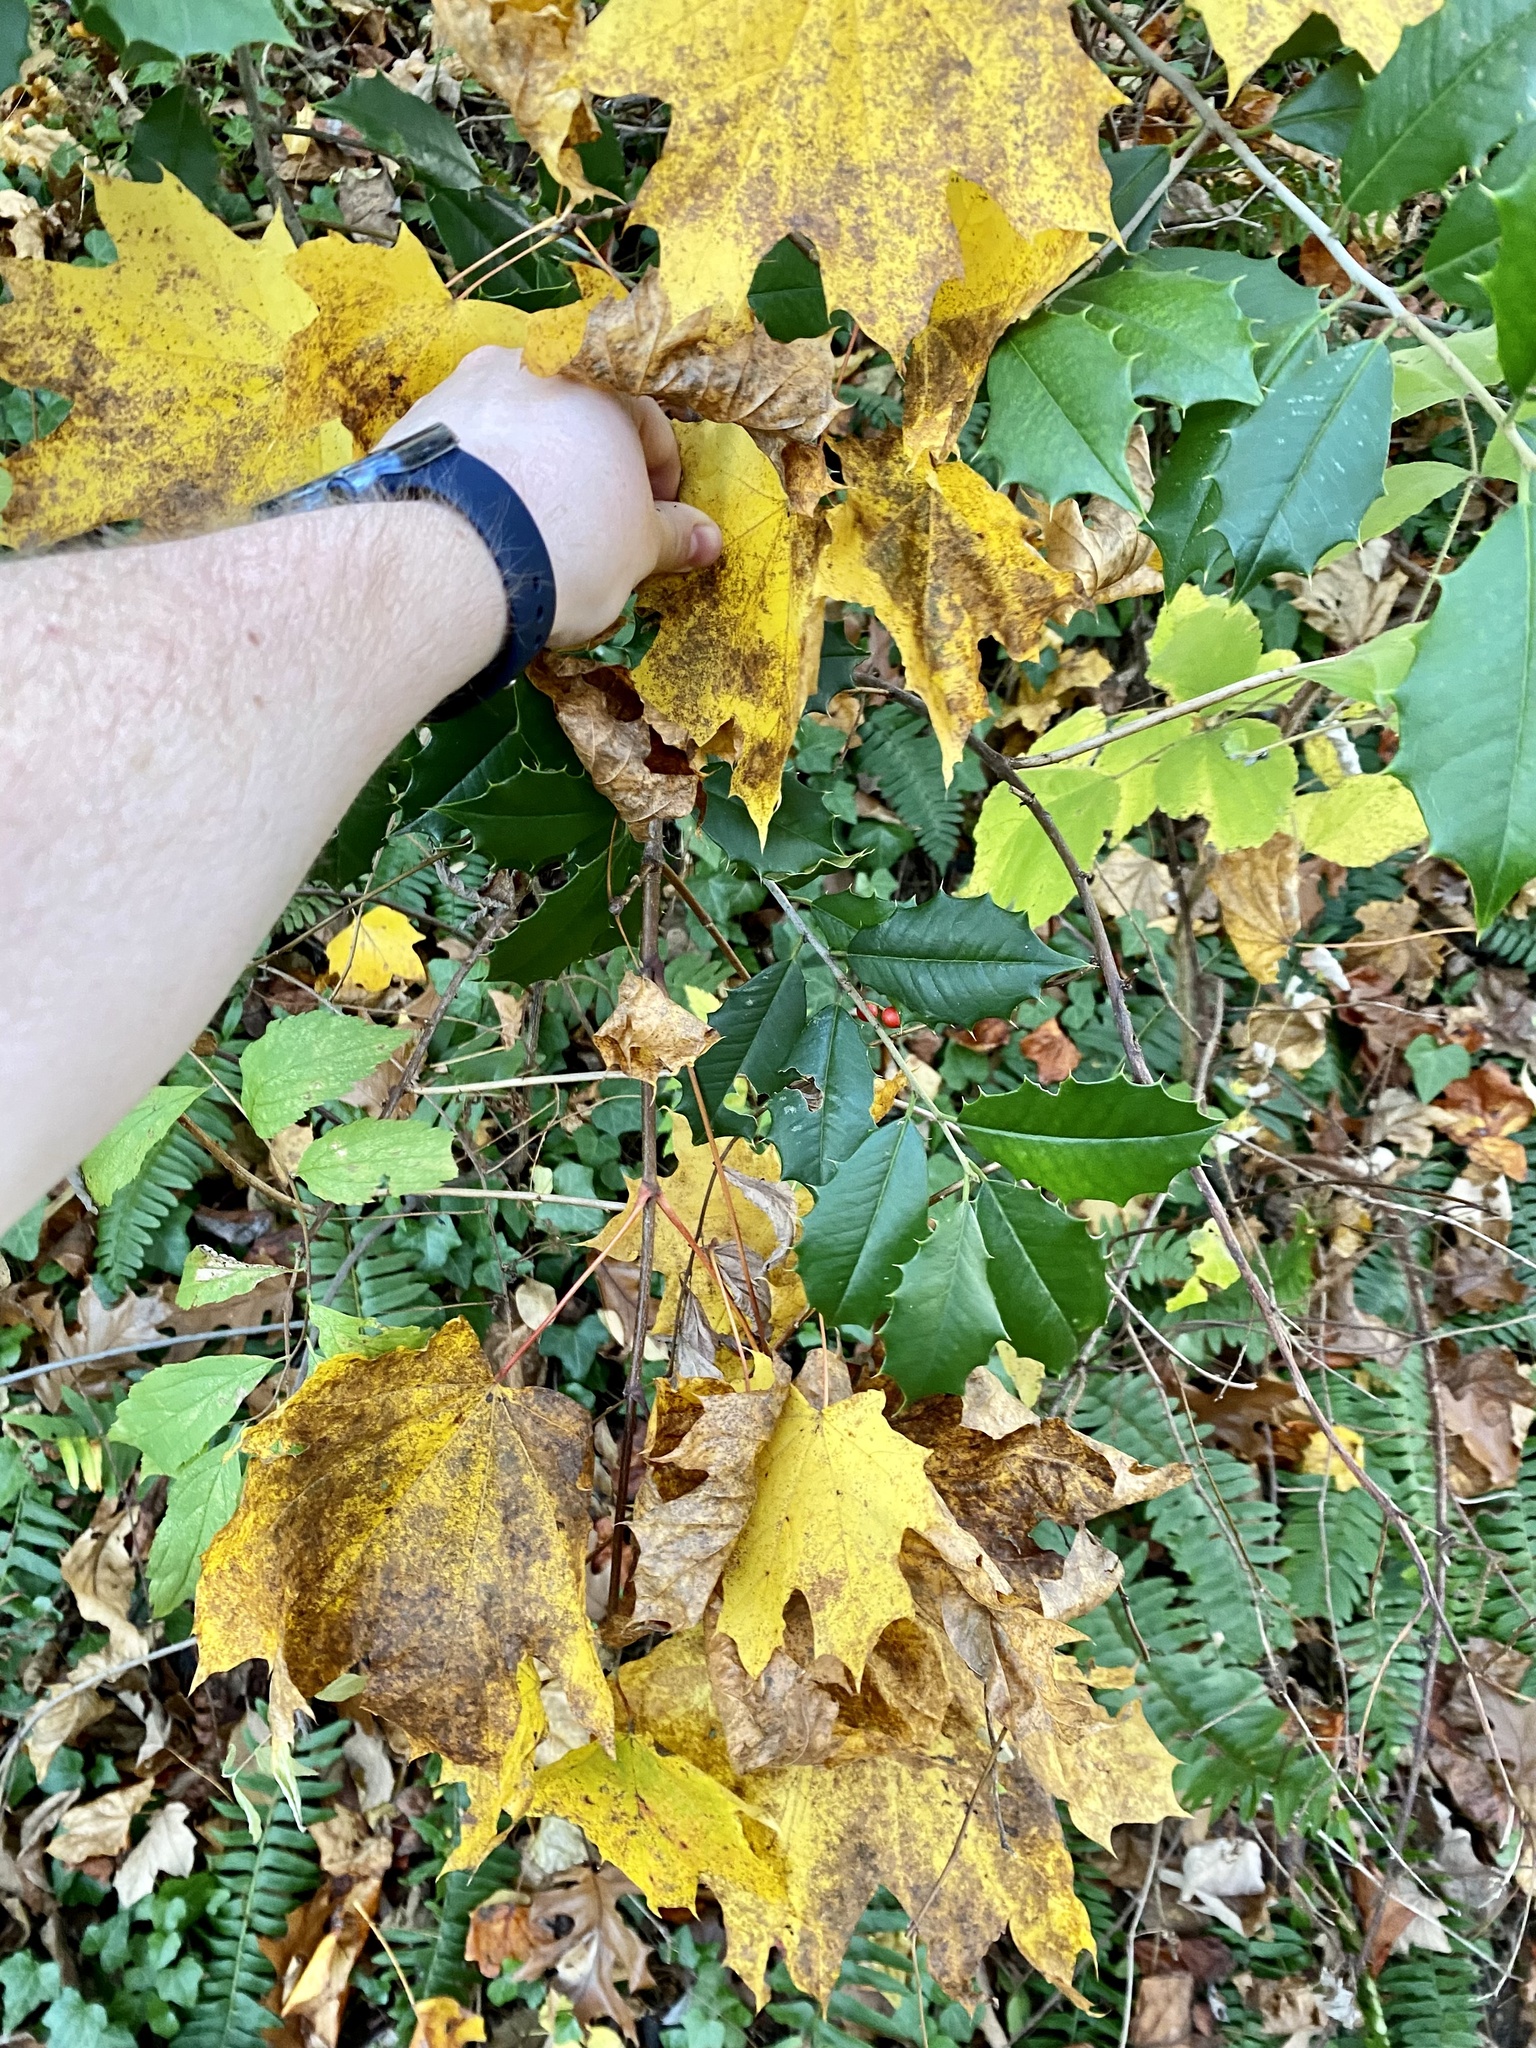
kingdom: Plantae
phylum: Tracheophyta
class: Magnoliopsida
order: Aquifoliales
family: Aquifoliaceae
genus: Ilex
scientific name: Ilex opaca
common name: American holly
